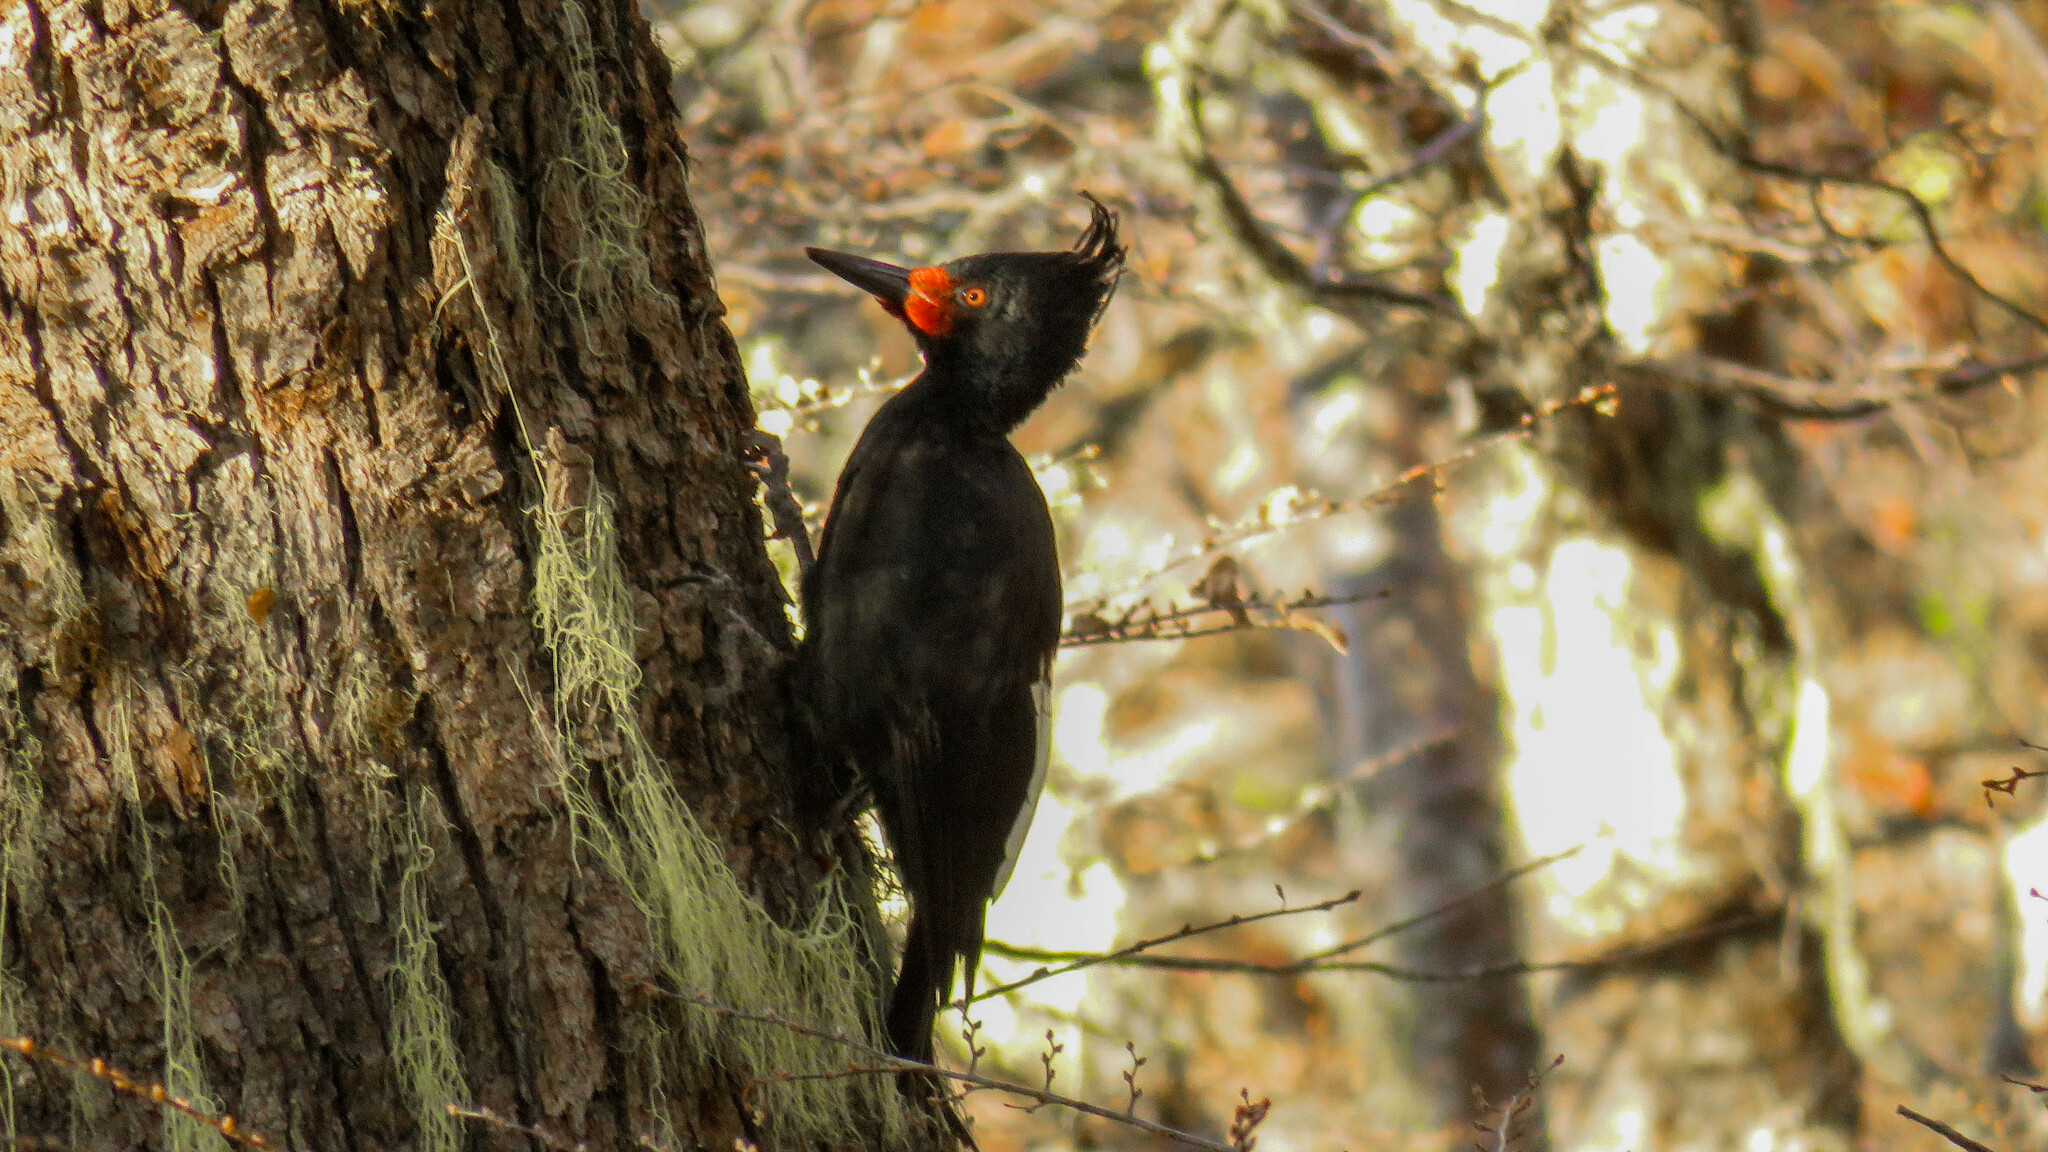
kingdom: Animalia
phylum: Chordata
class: Aves
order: Piciformes
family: Picidae
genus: Campephilus
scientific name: Campephilus magellanicus
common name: Magellanic woodpecker
